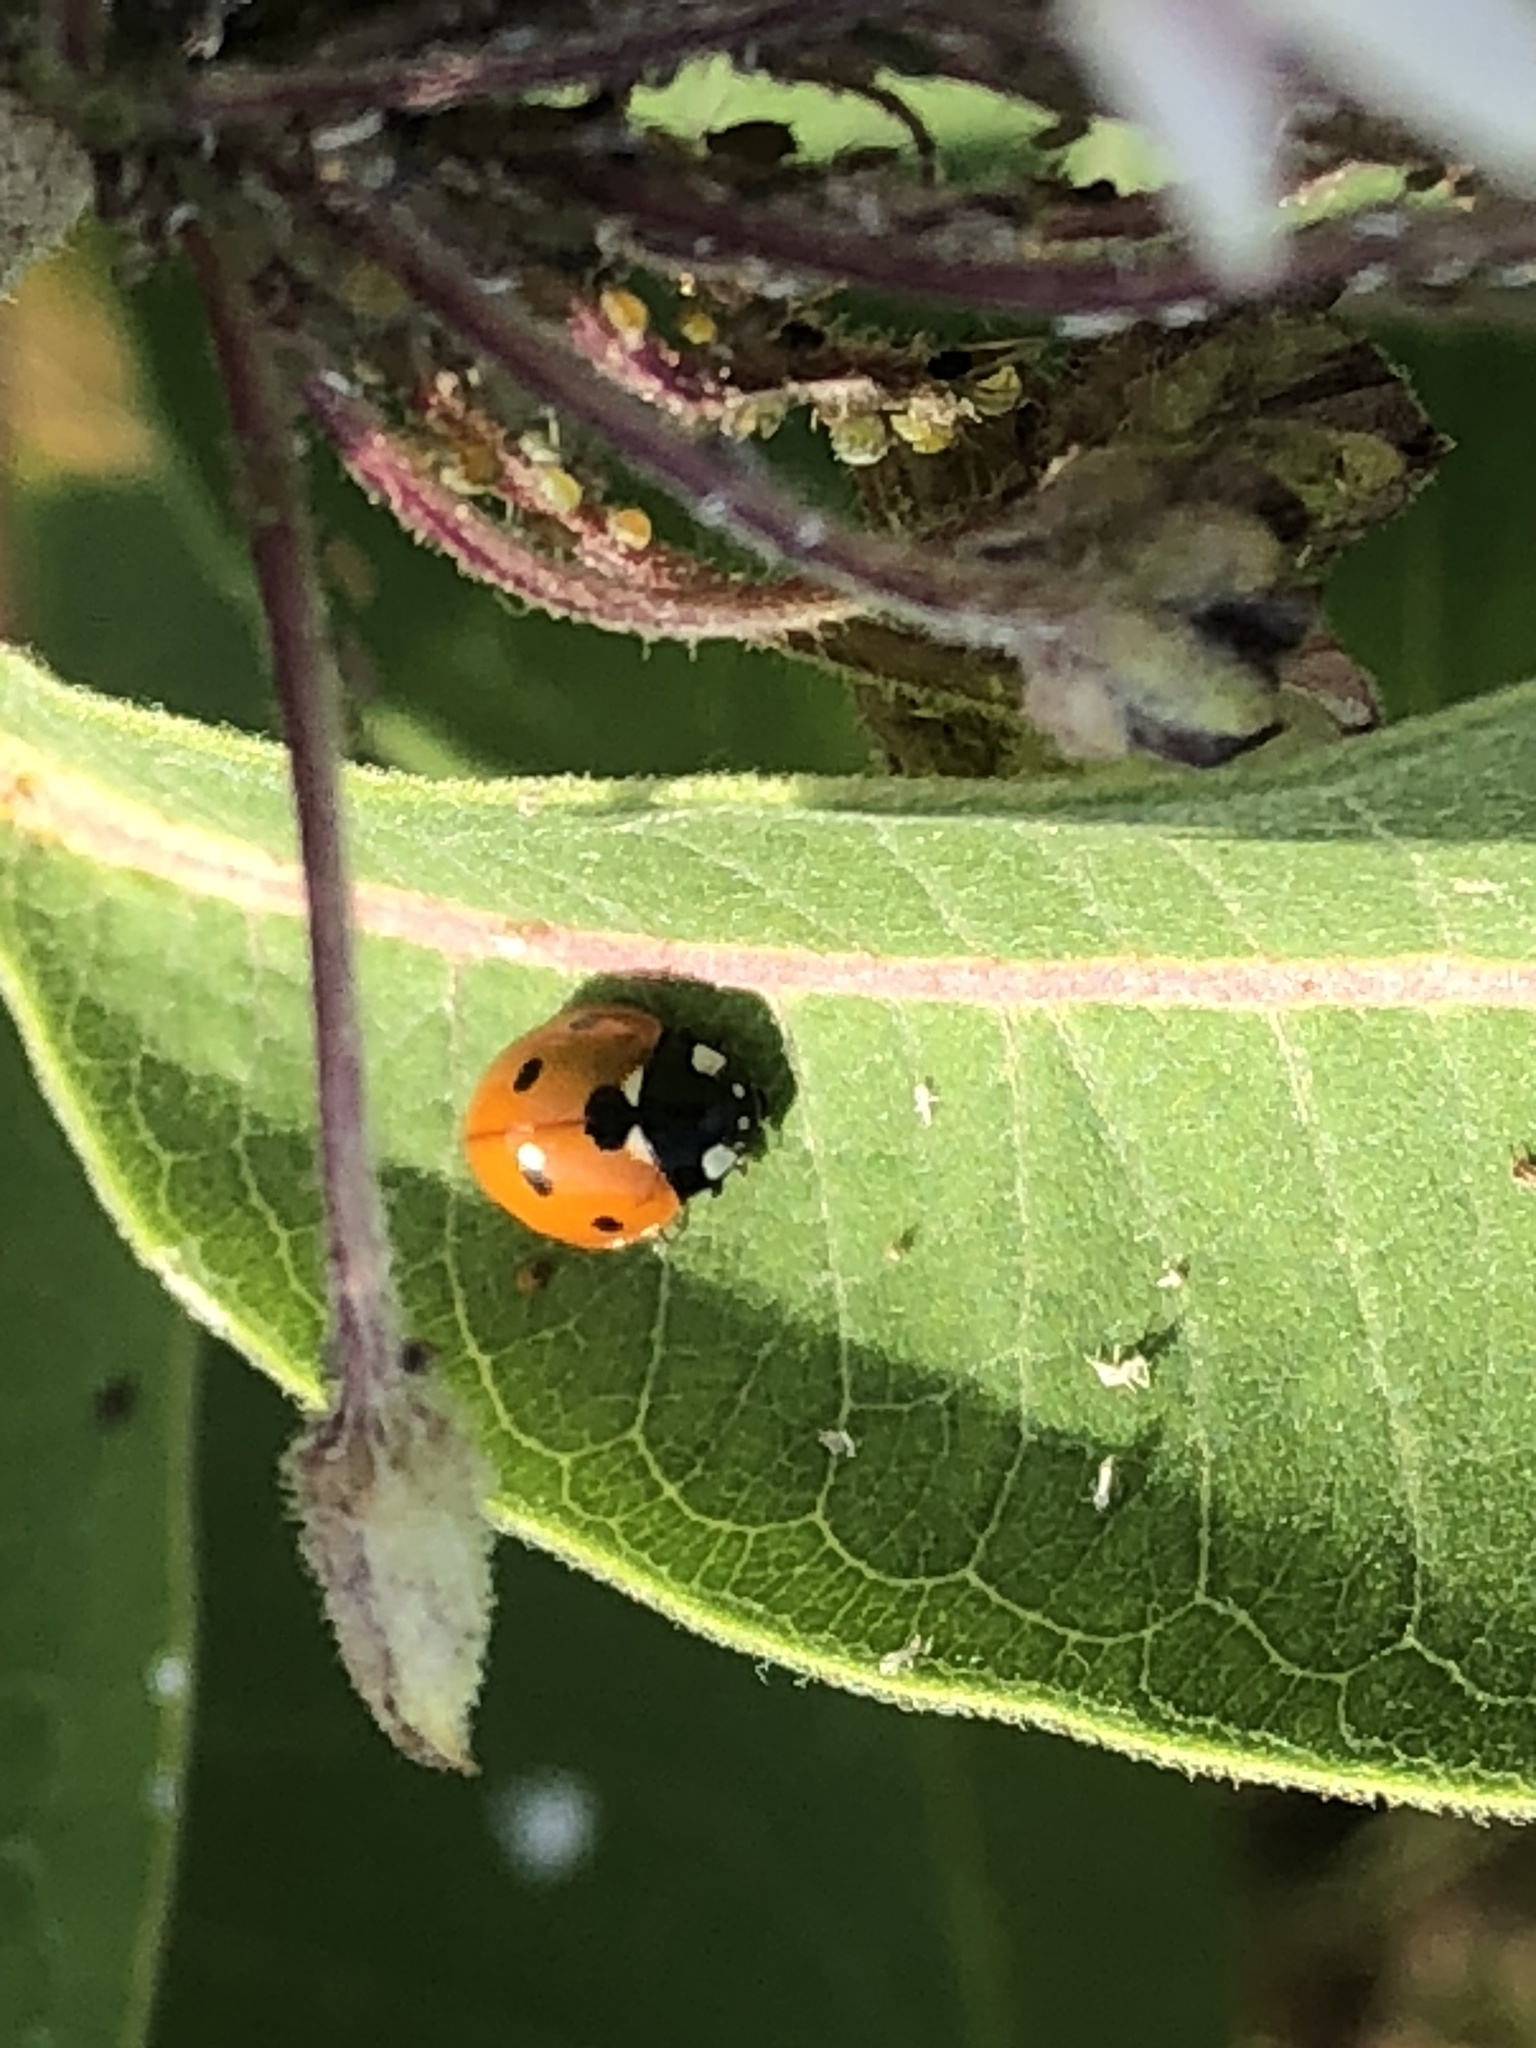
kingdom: Animalia
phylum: Arthropoda
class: Insecta
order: Coleoptera
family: Coccinellidae
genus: Coccinella
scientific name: Coccinella septempunctata
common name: Sevenspotted lady beetle
